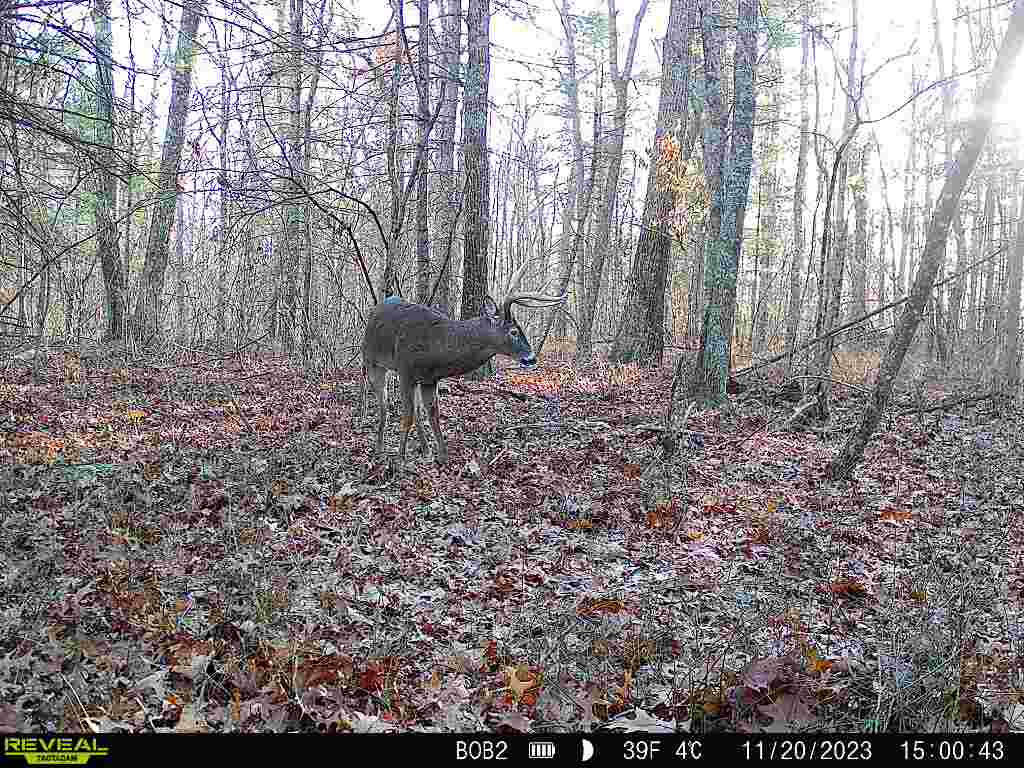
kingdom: Animalia
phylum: Chordata
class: Mammalia
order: Artiodactyla
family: Cervidae
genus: Odocoileus
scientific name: Odocoileus virginianus
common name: White-tailed deer
